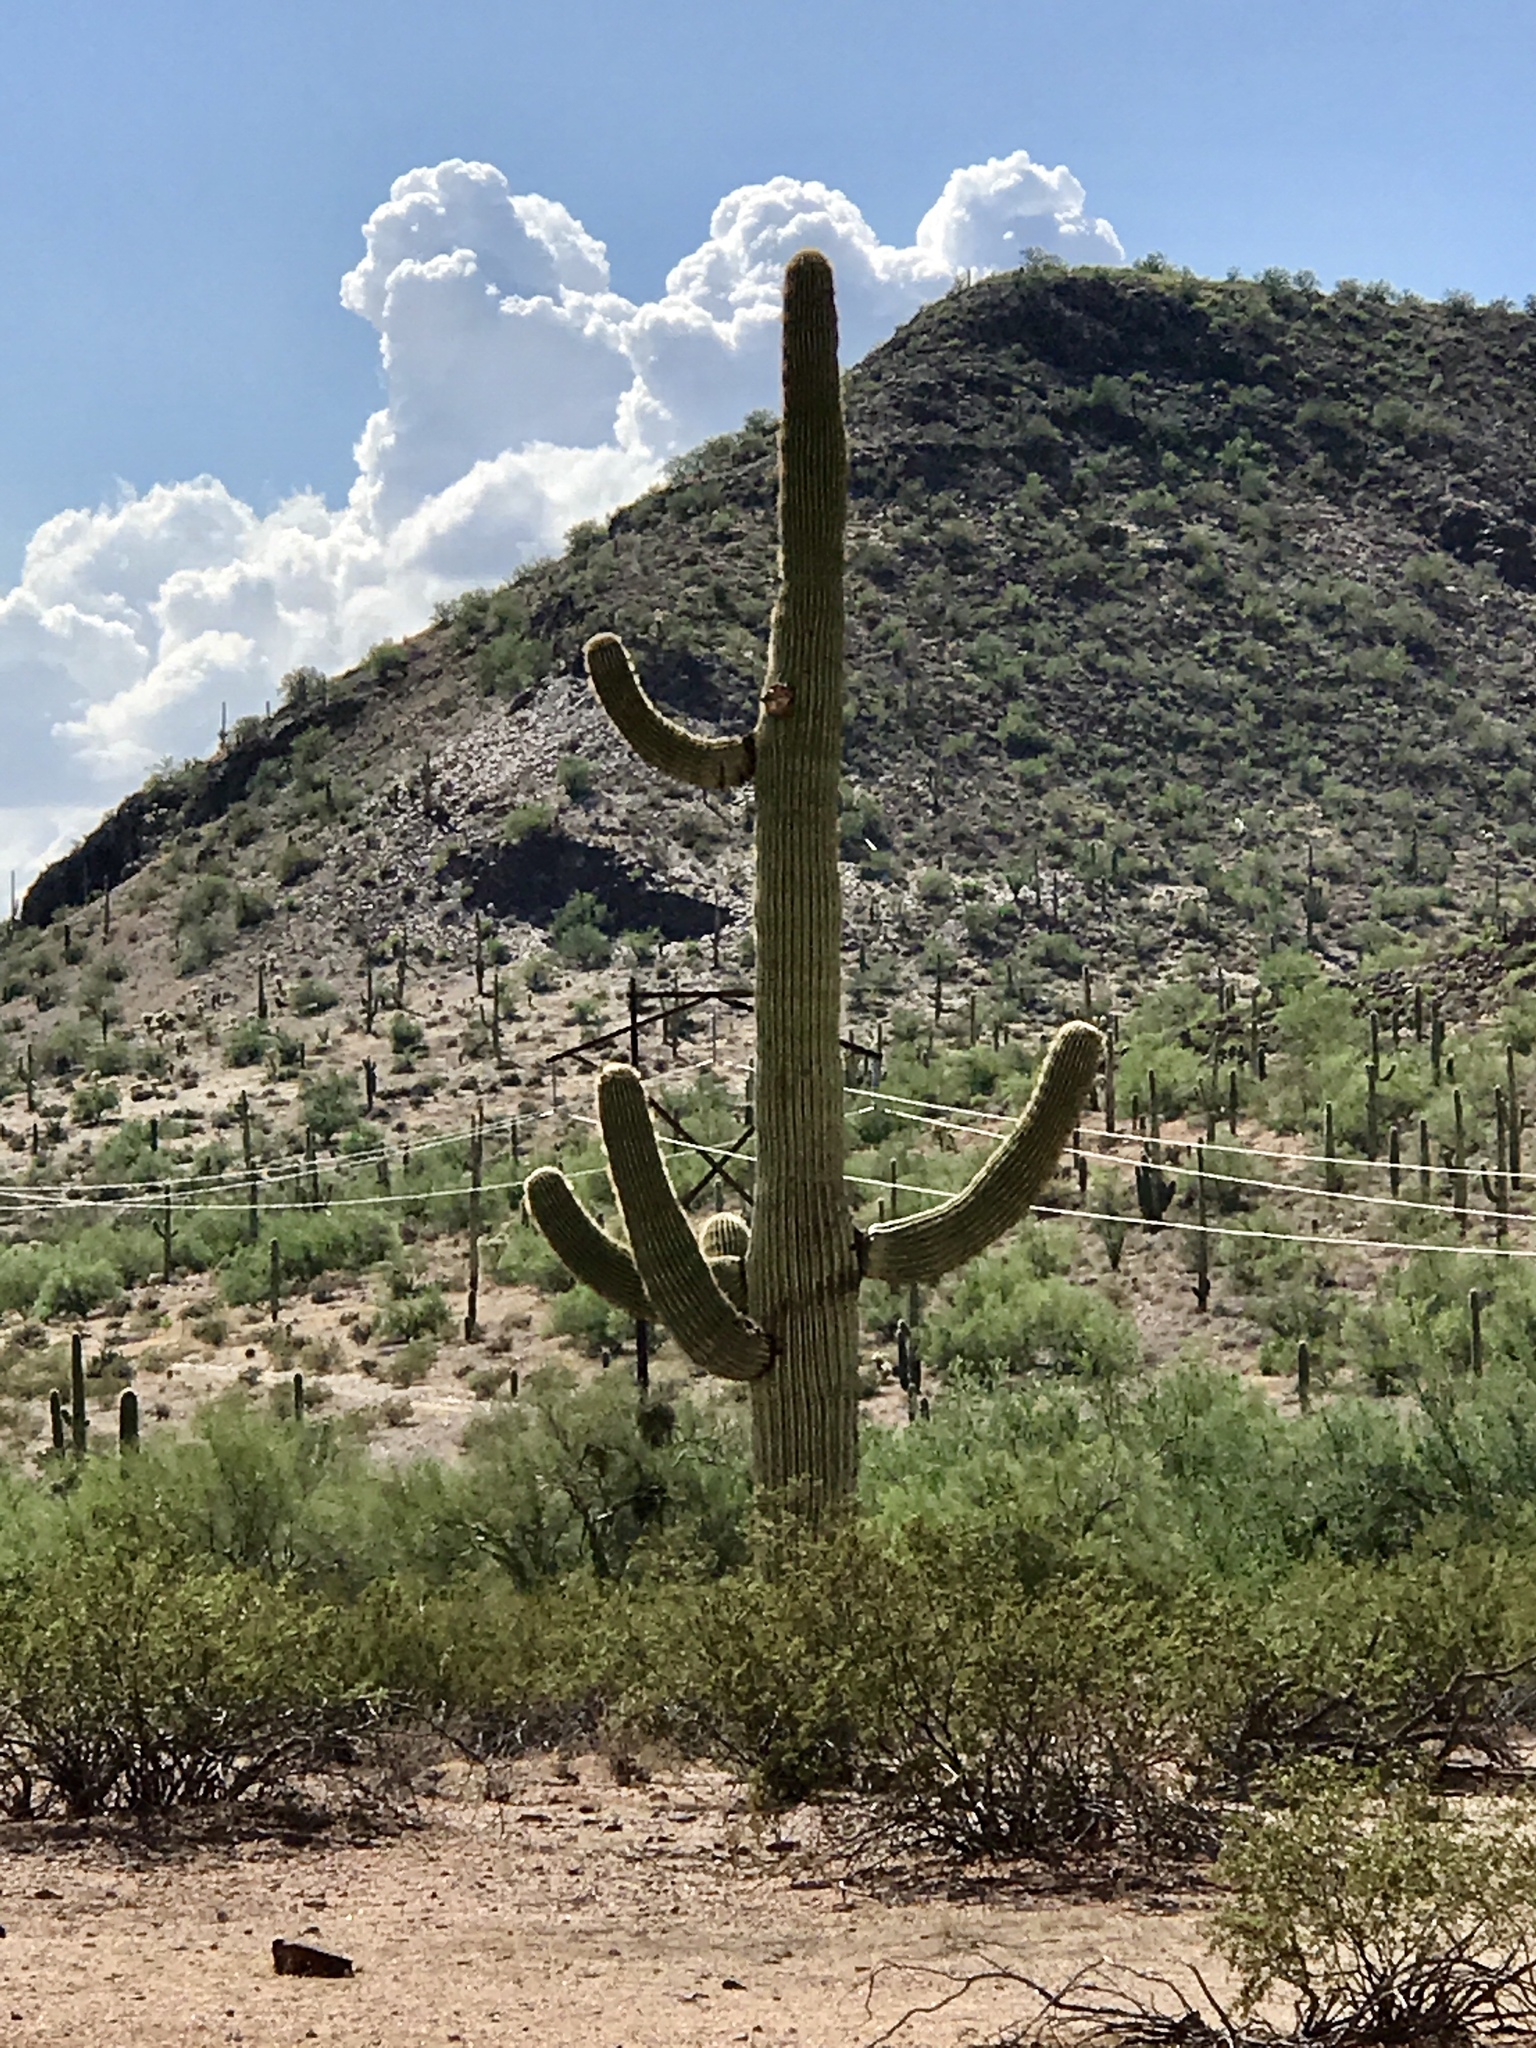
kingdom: Plantae
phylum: Tracheophyta
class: Magnoliopsida
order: Caryophyllales
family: Cactaceae
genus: Carnegiea
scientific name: Carnegiea gigantea
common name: Saguaro
